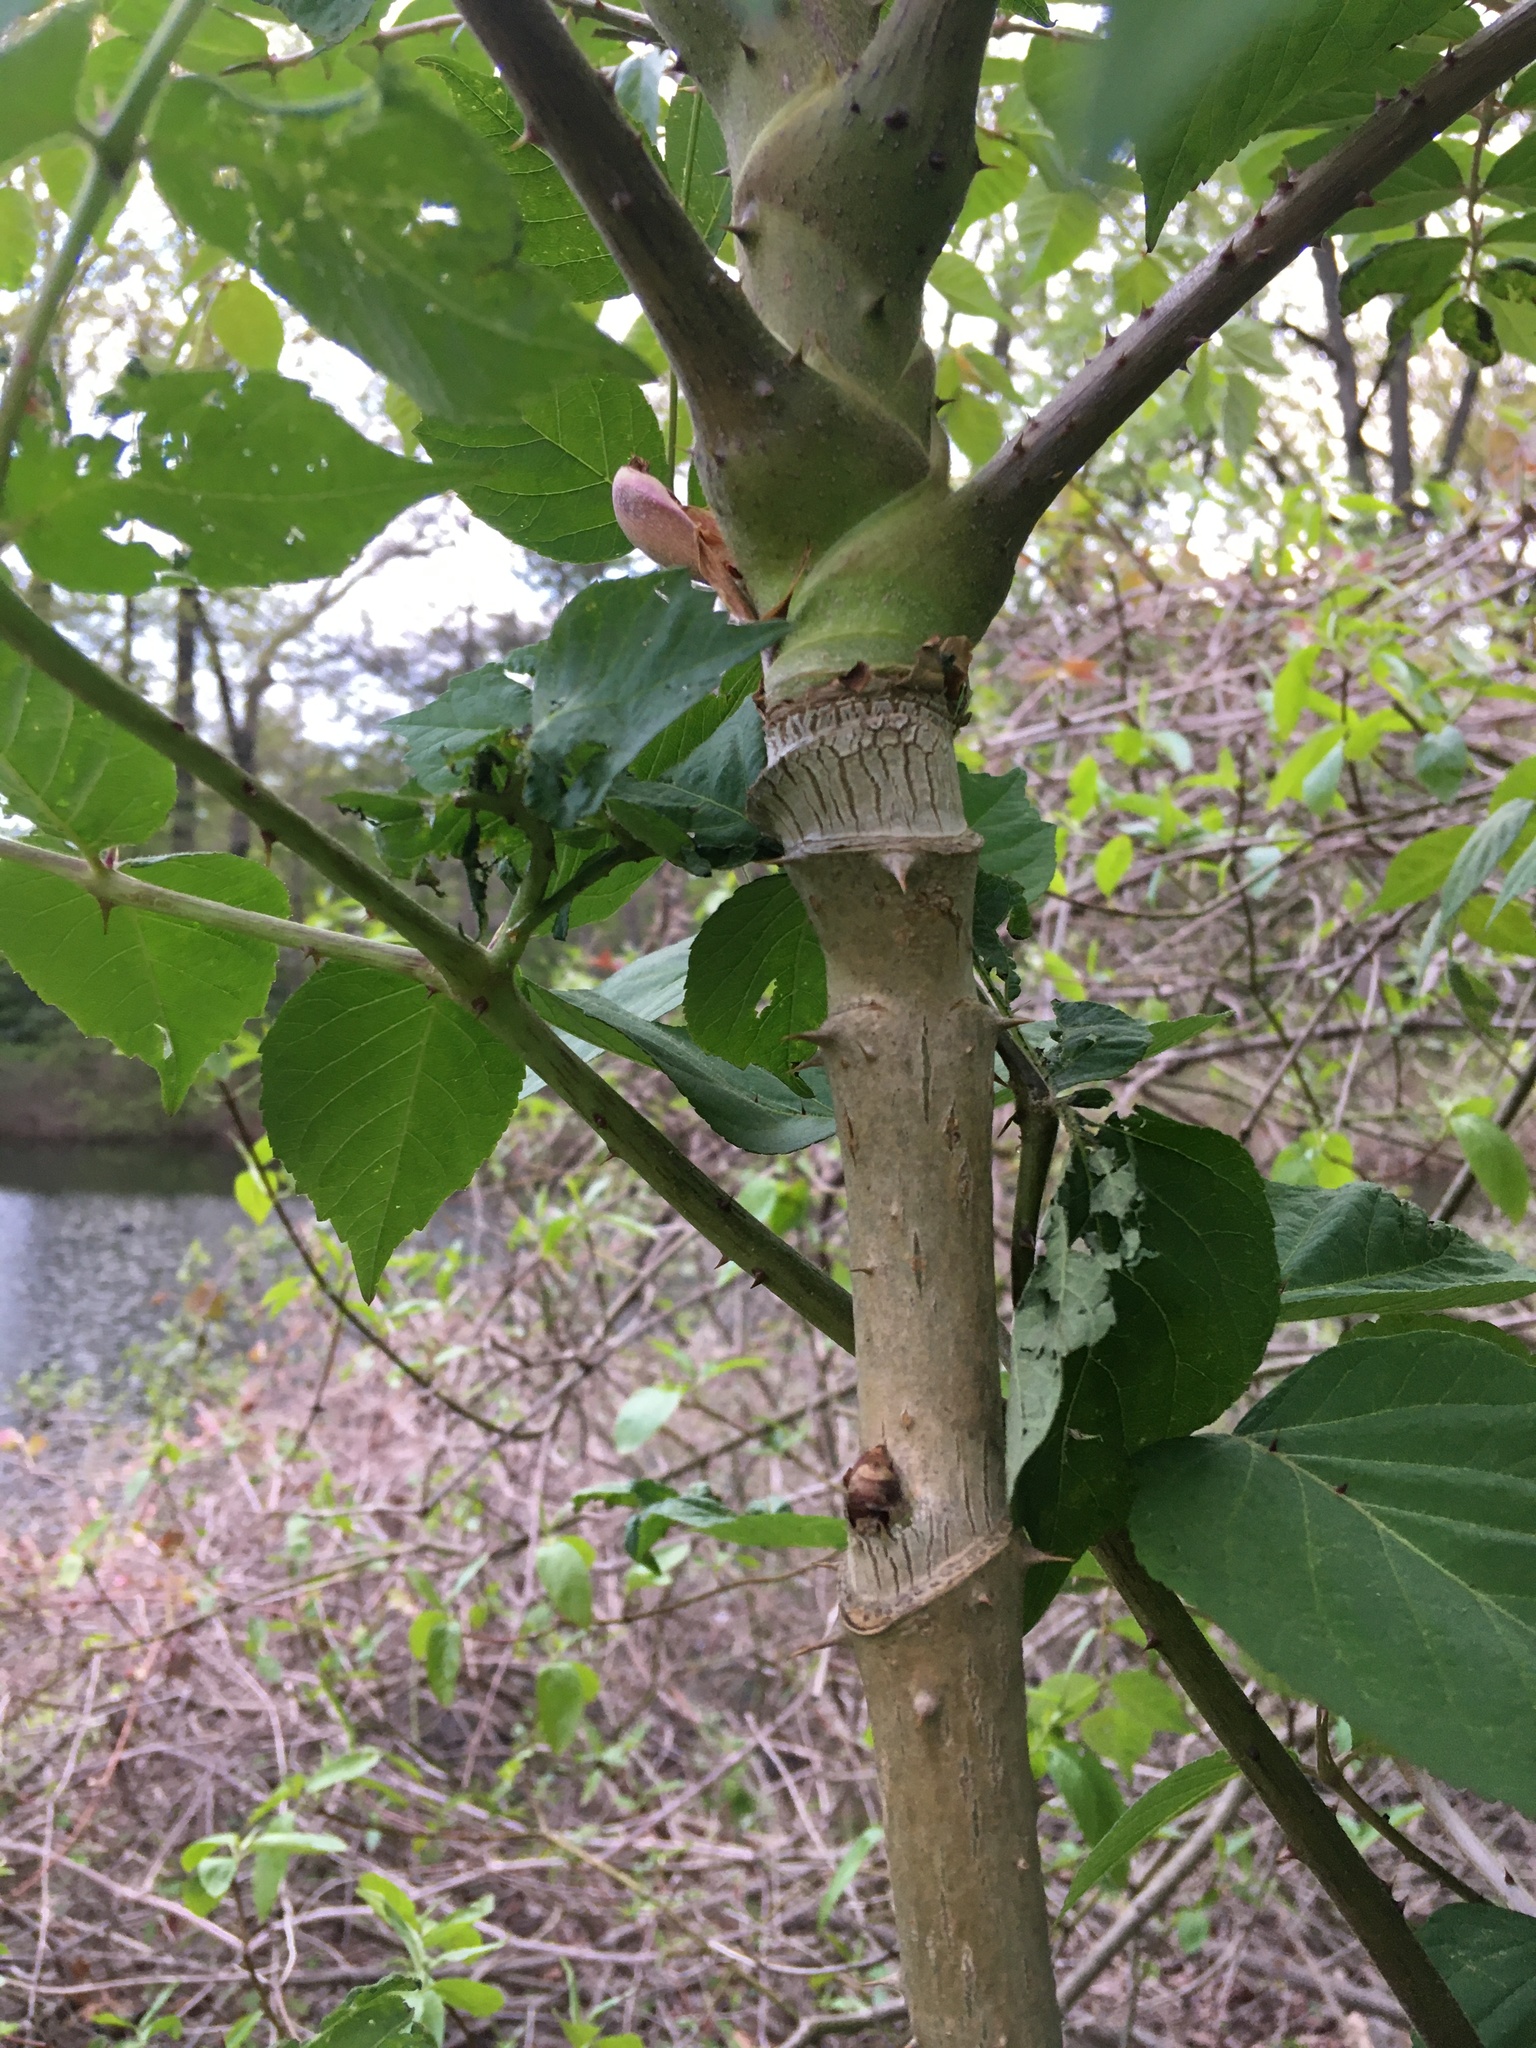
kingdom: Plantae
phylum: Tracheophyta
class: Magnoliopsida
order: Apiales
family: Araliaceae
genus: Aralia
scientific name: Aralia elata
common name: Japanese angelica-tree
